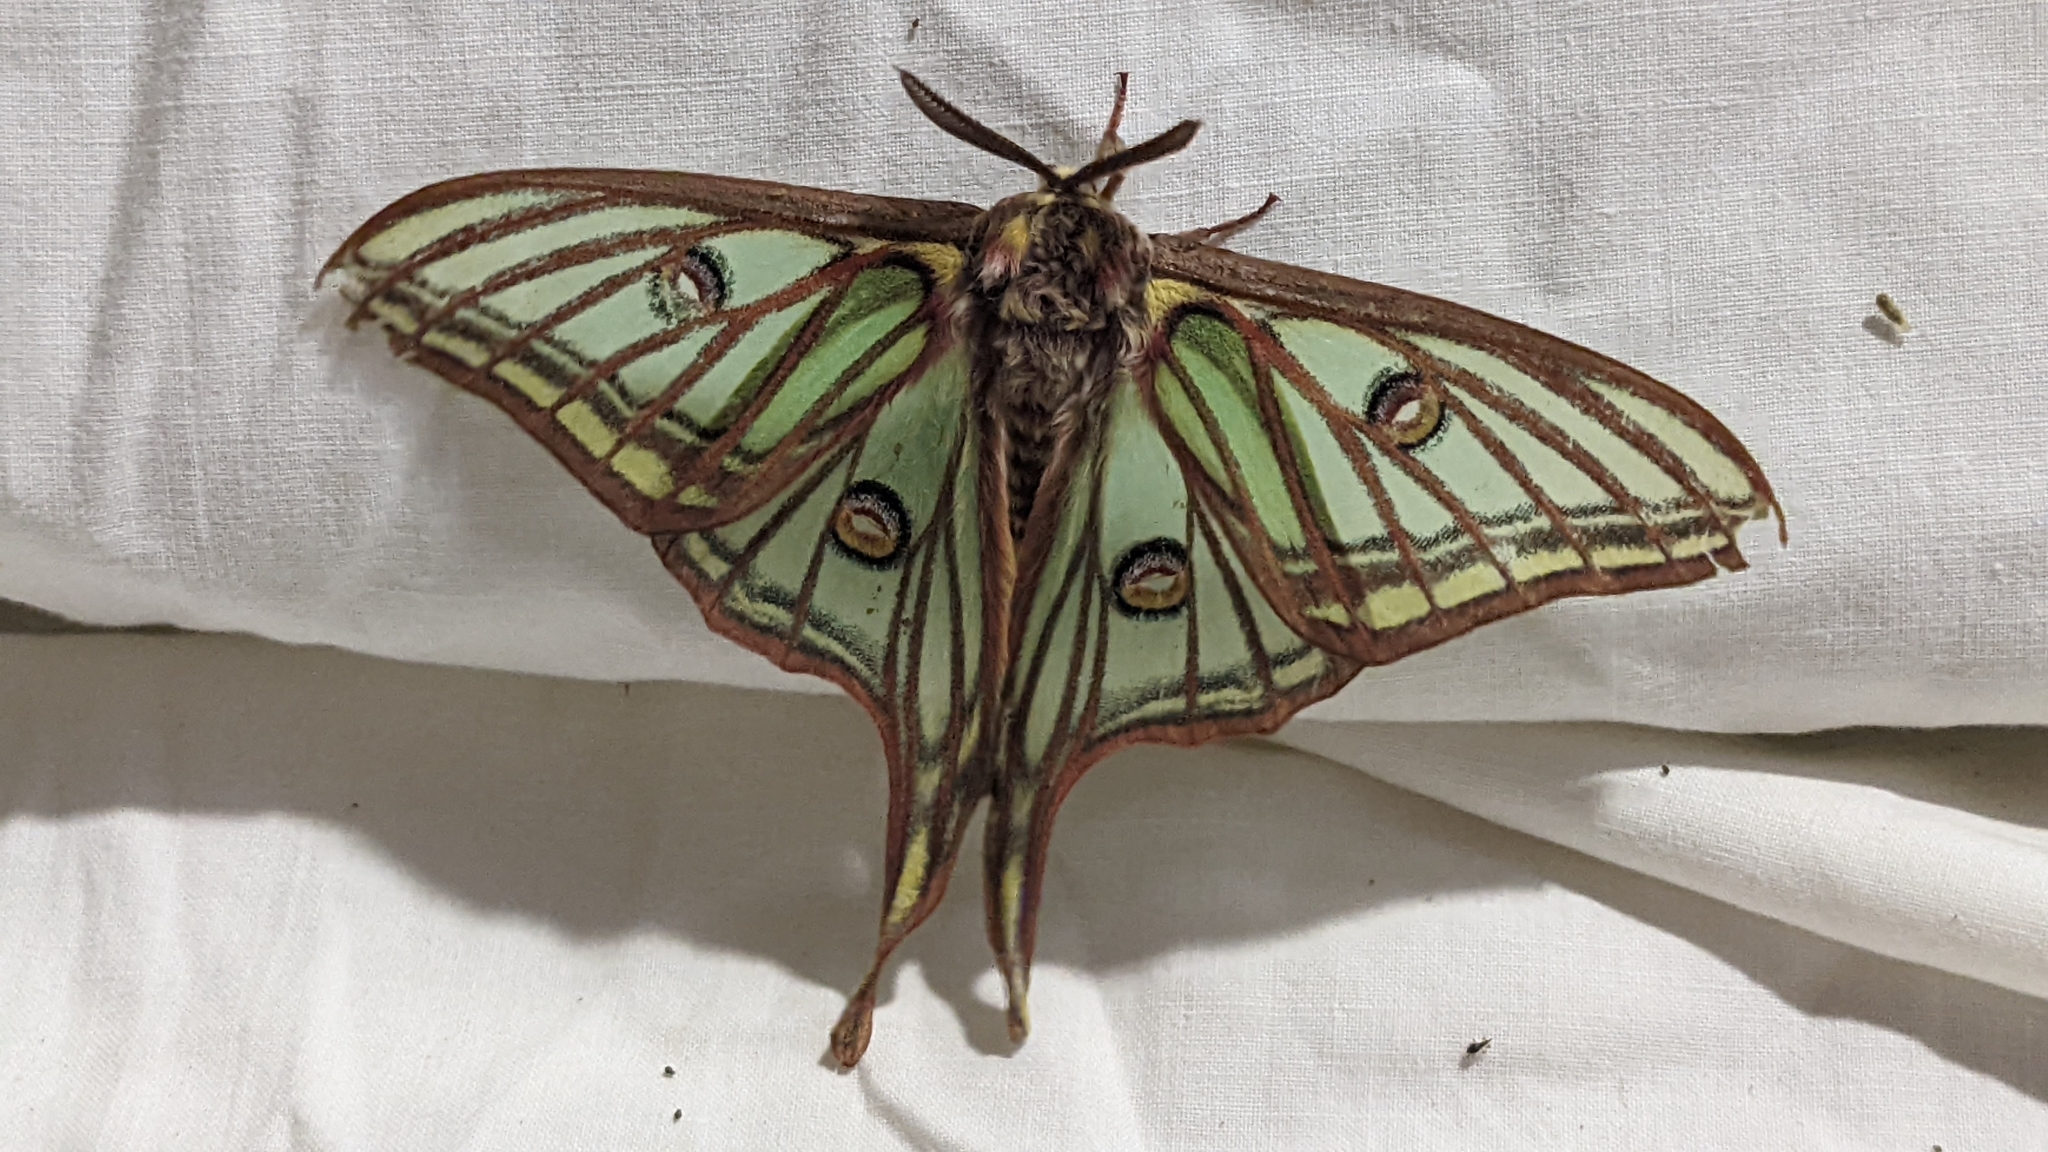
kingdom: Animalia
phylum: Arthropoda
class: Insecta
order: Lepidoptera
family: Saturniidae
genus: Graellsia
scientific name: Graellsia isabellae
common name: Spanish moon moth
